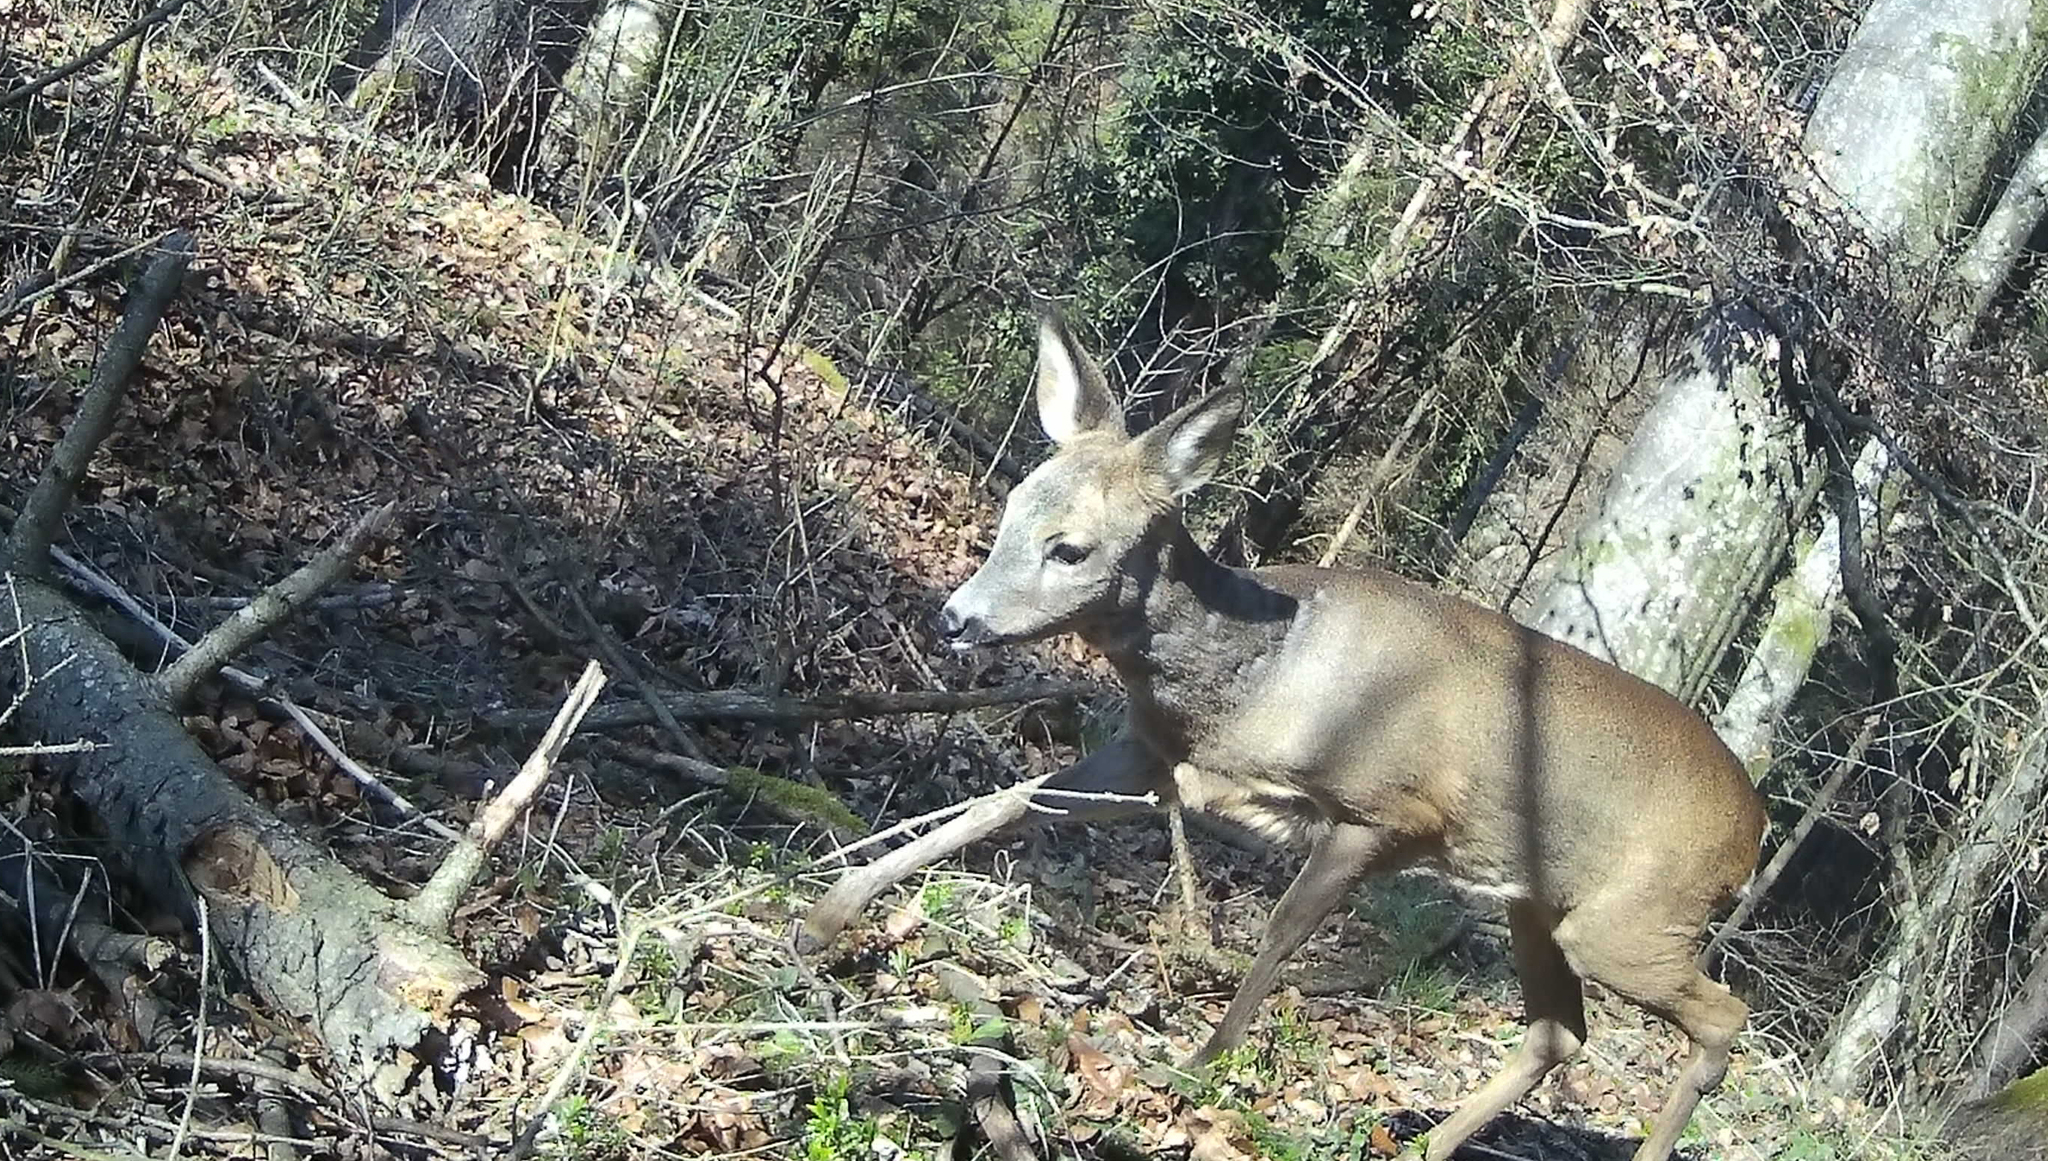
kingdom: Animalia
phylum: Chordata
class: Mammalia
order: Artiodactyla
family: Cervidae
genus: Capreolus
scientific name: Capreolus capreolus
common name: Western roe deer
